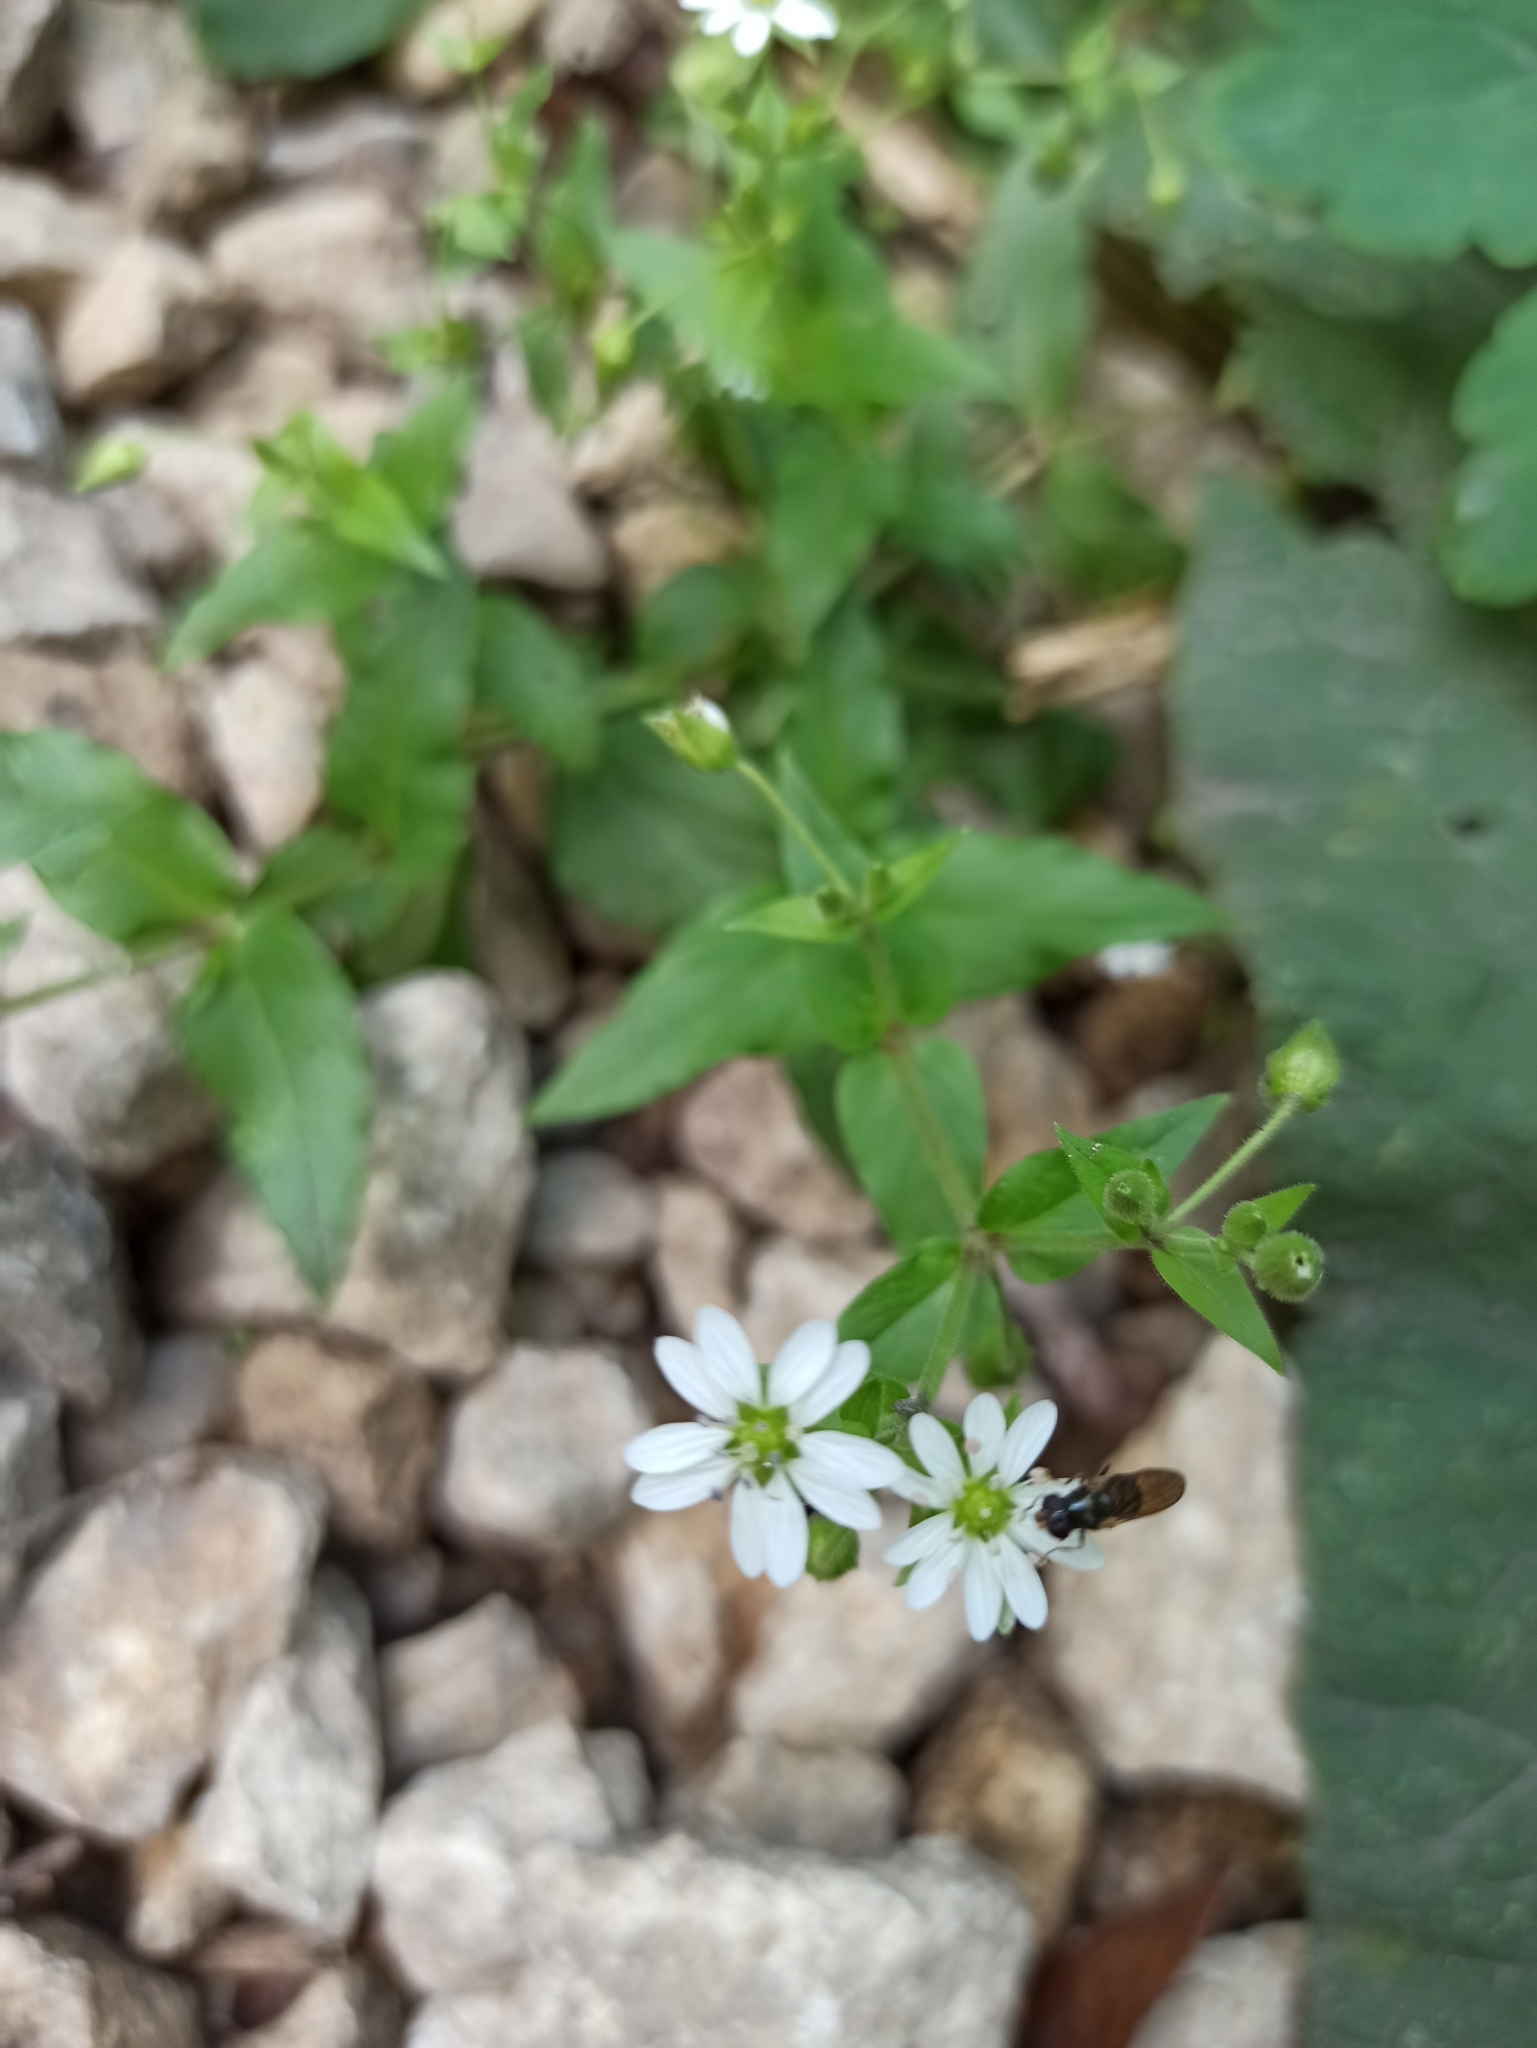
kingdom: Plantae
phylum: Tracheophyta
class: Magnoliopsida
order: Caryophyllales
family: Caryophyllaceae
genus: Stellaria
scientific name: Stellaria aquatica
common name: Water chickweed
